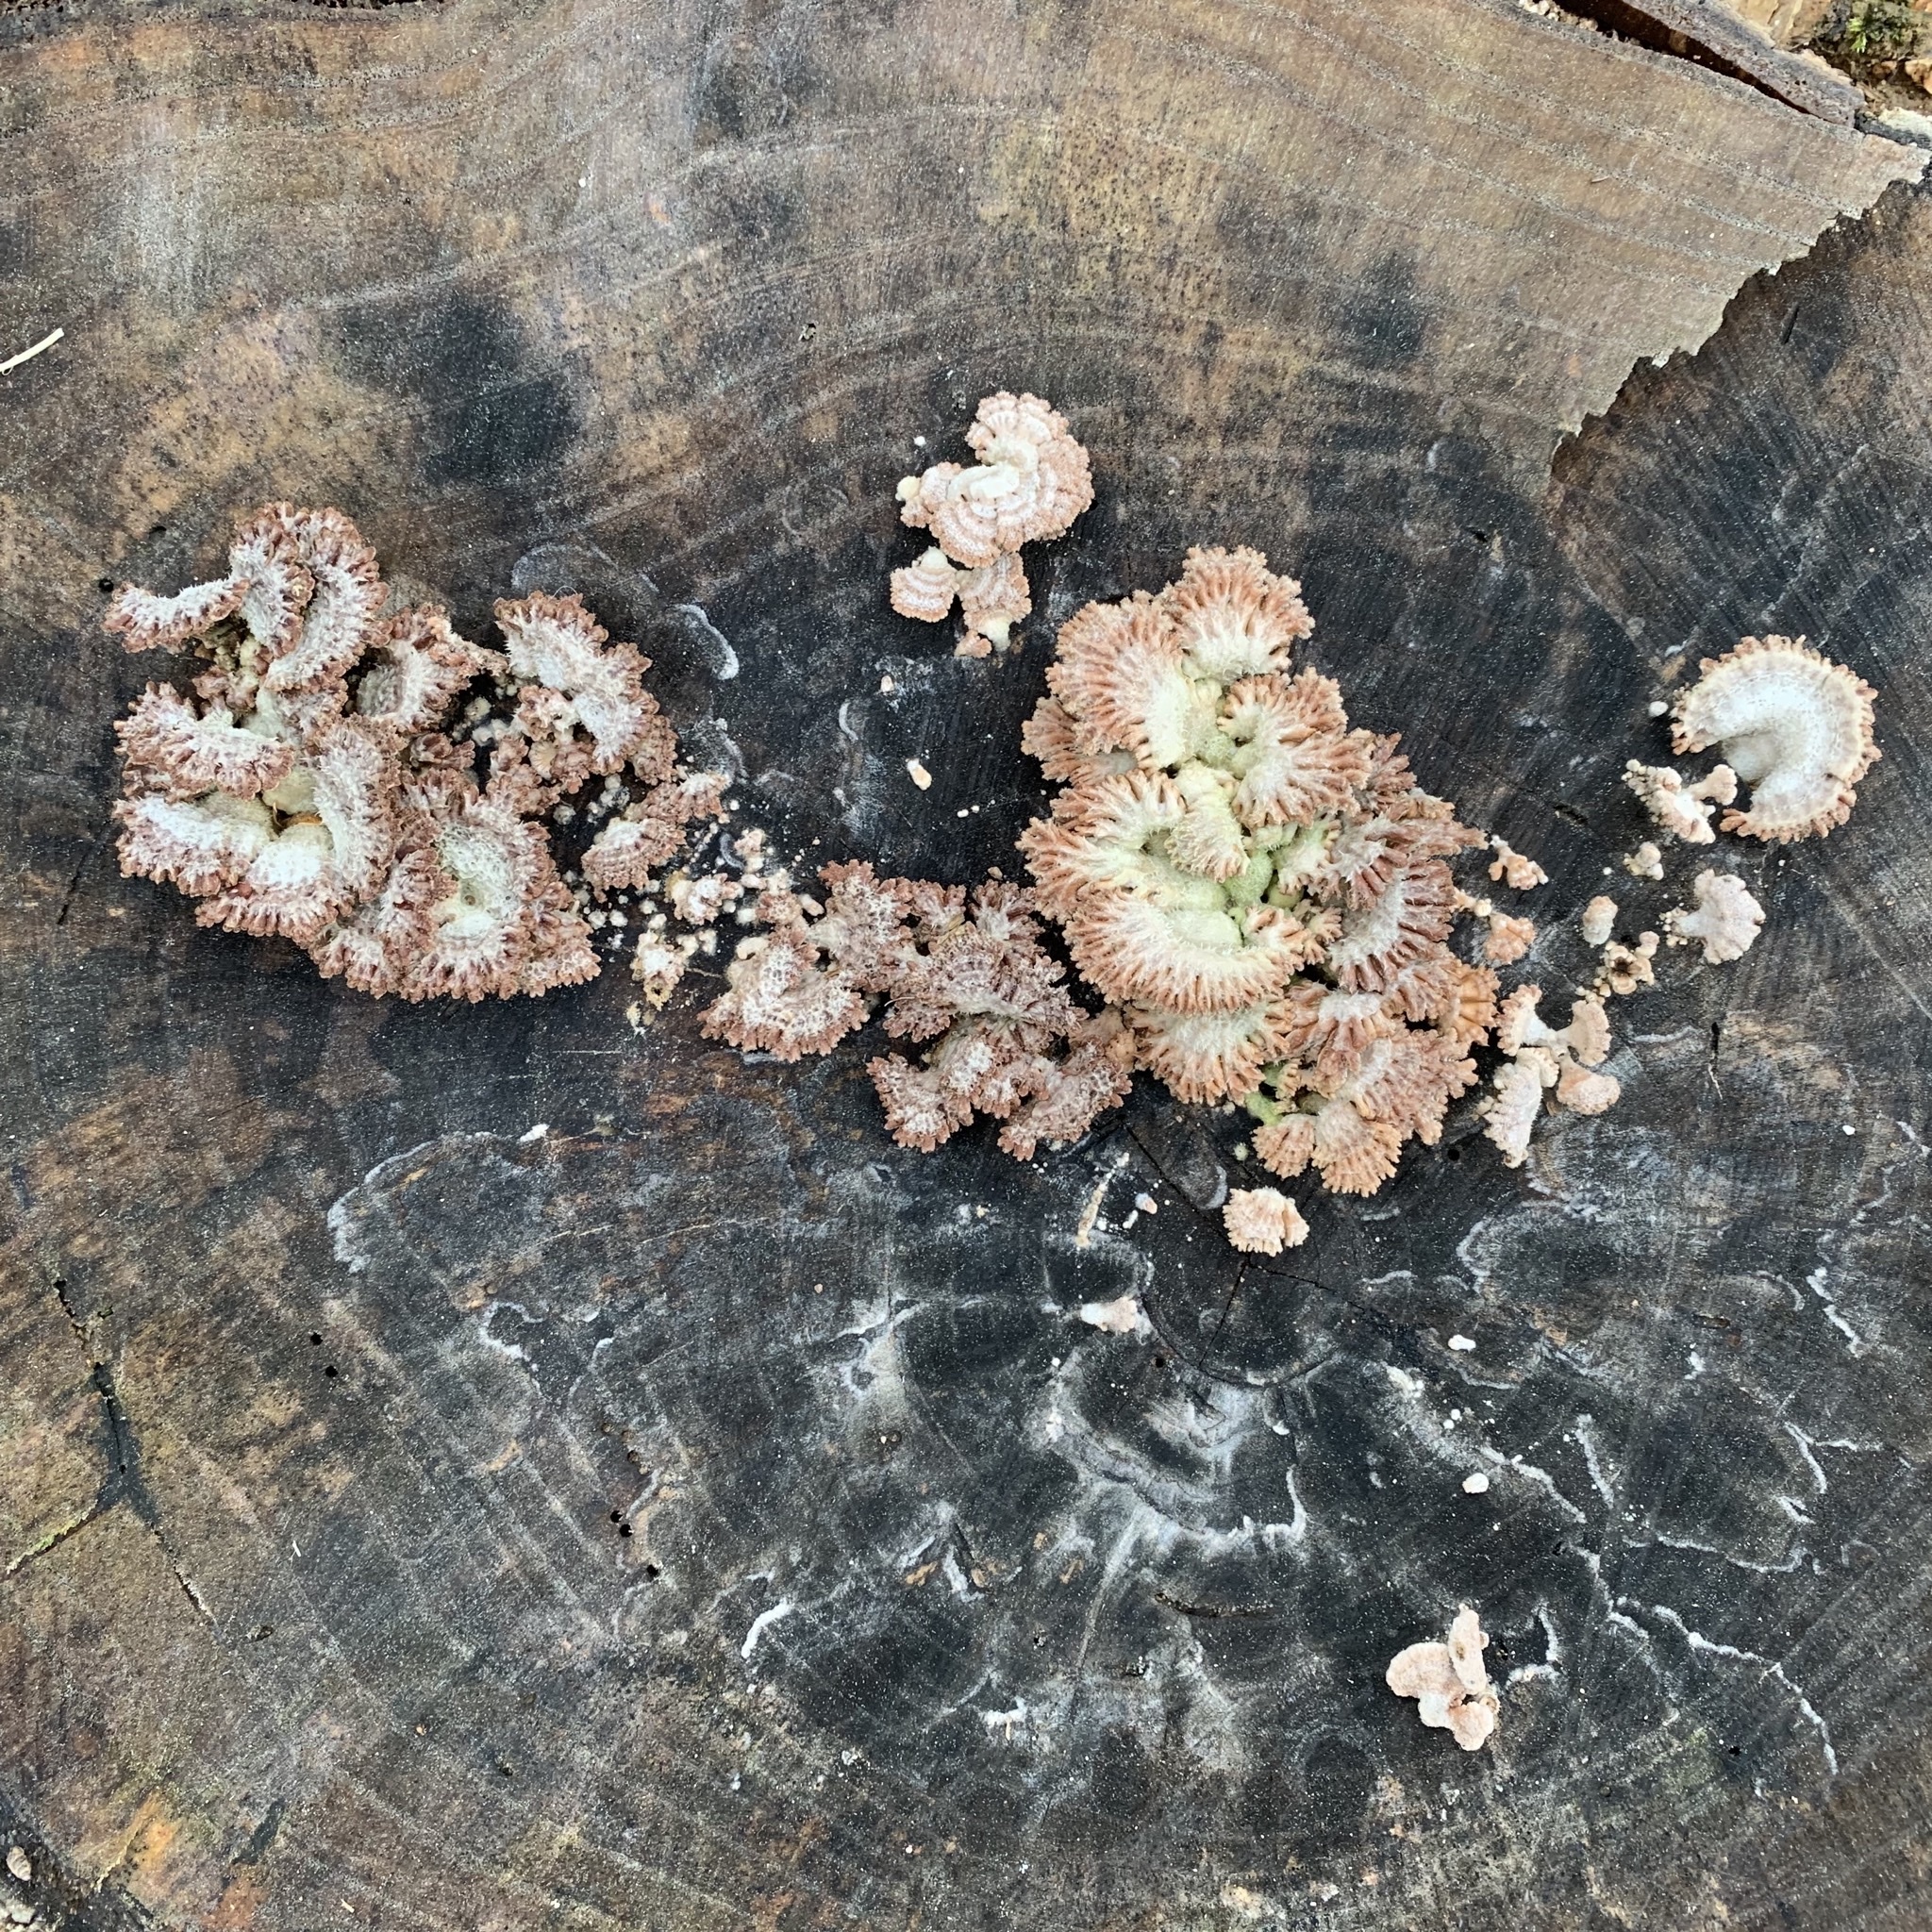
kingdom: Fungi
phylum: Basidiomycota
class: Agaricomycetes
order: Agaricales
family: Schizophyllaceae
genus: Schizophyllum
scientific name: Schizophyllum commune
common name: Common porecrust
